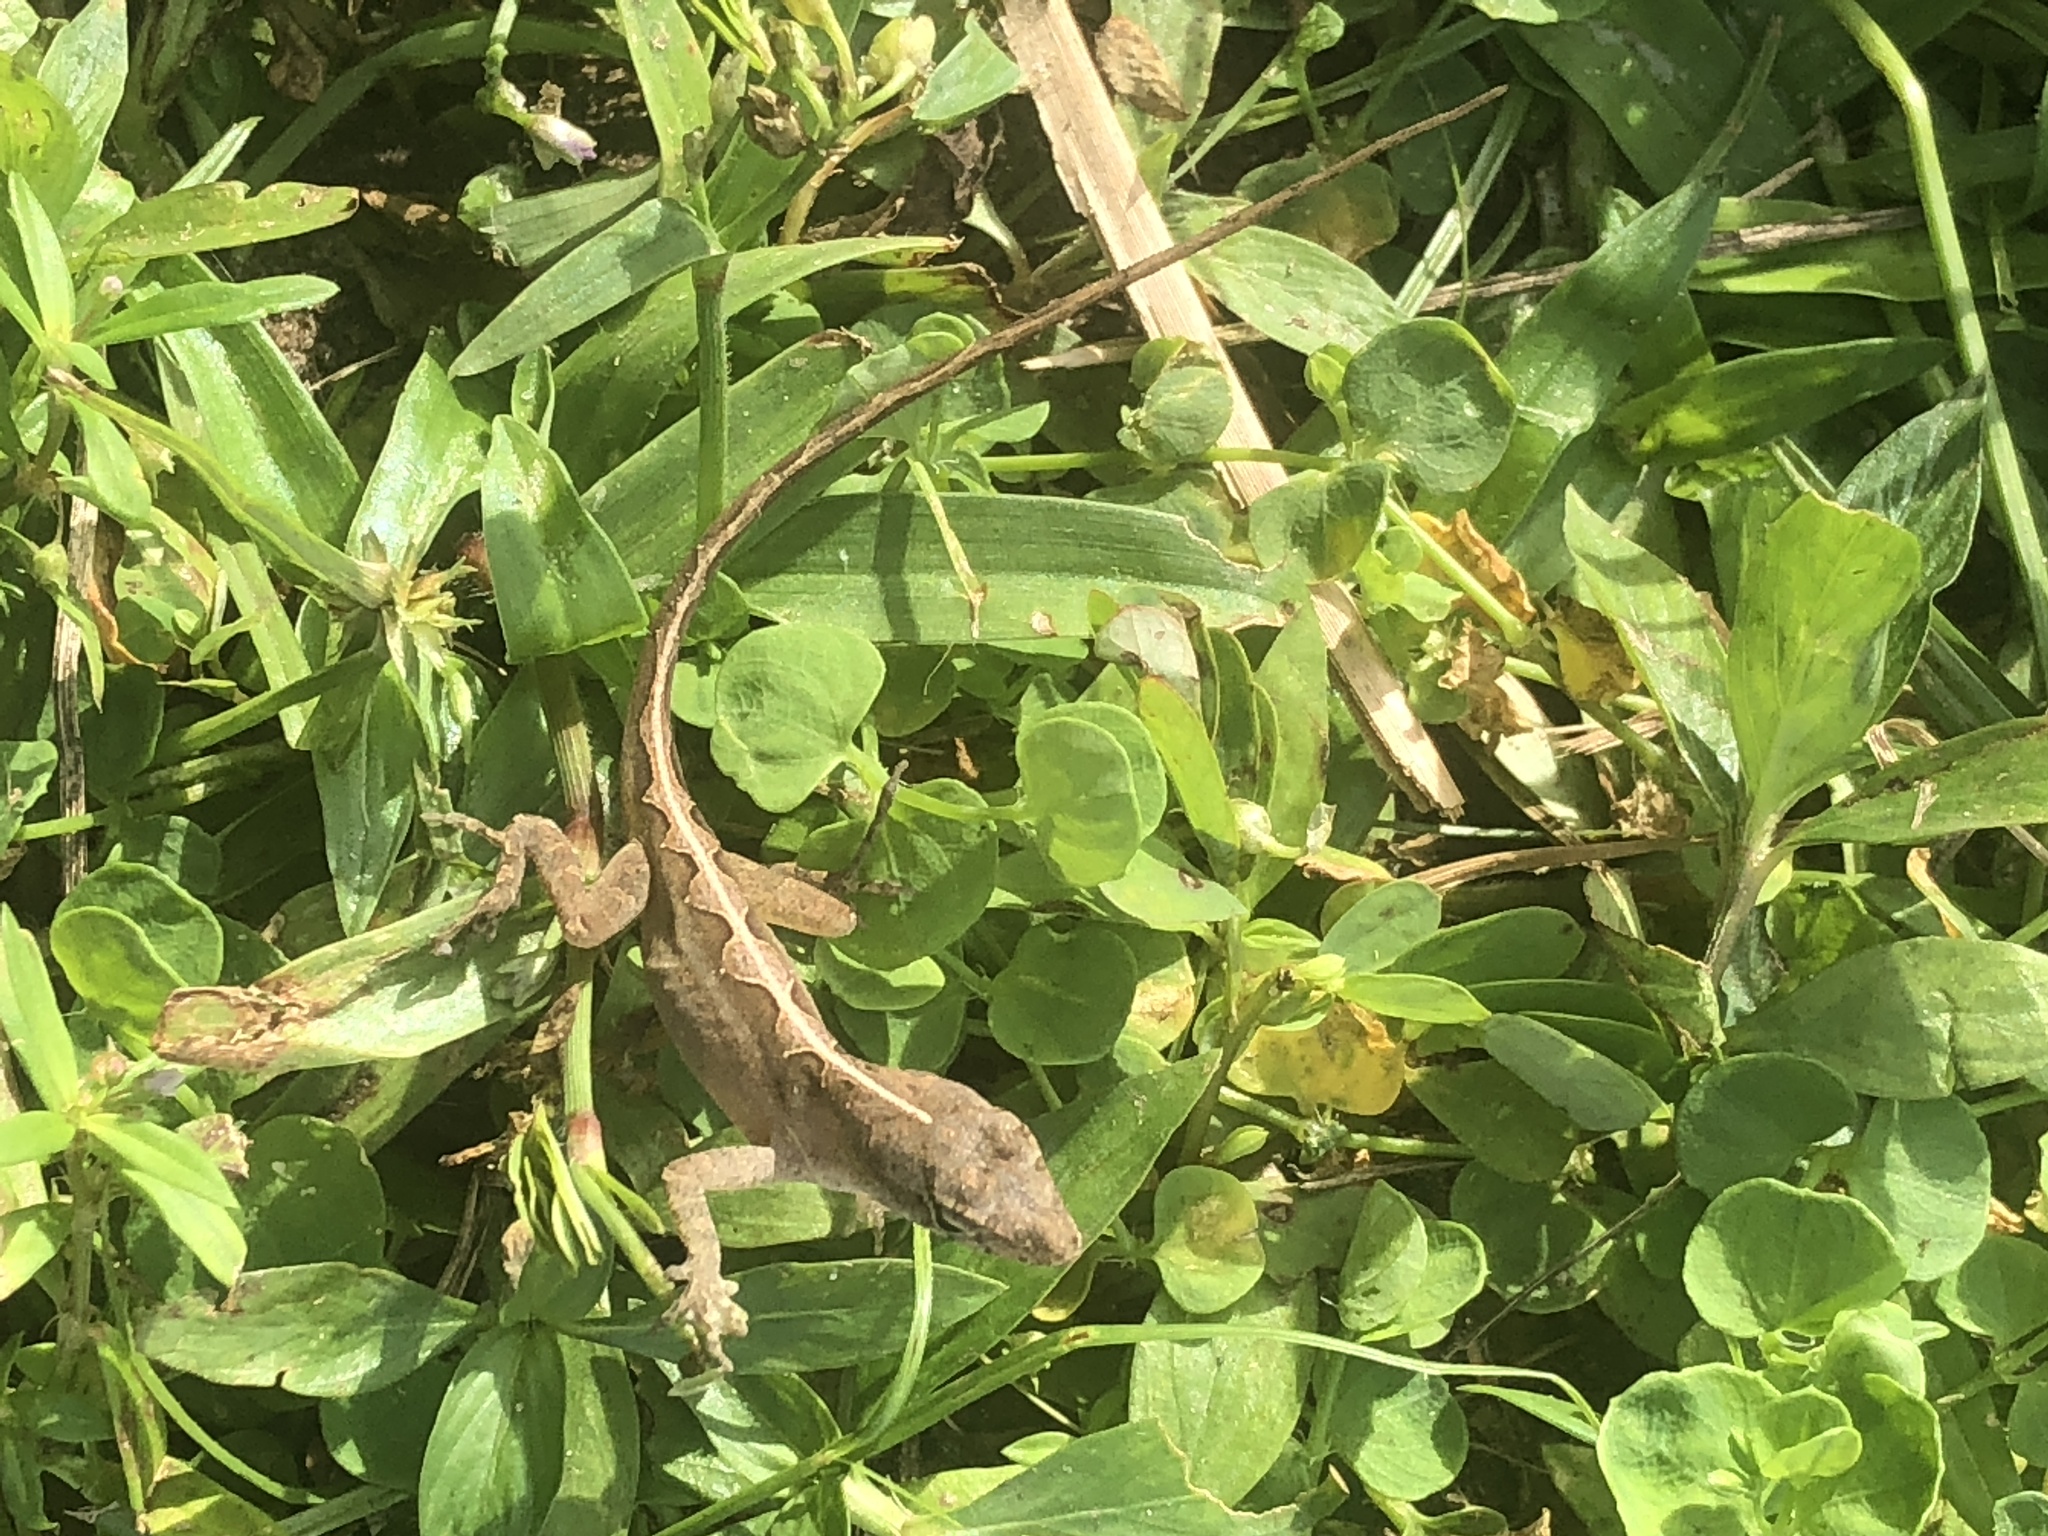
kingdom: Animalia
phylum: Chordata
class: Squamata
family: Dactyloidae
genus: Anolis
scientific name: Anolis sagrei
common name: Brown anole
